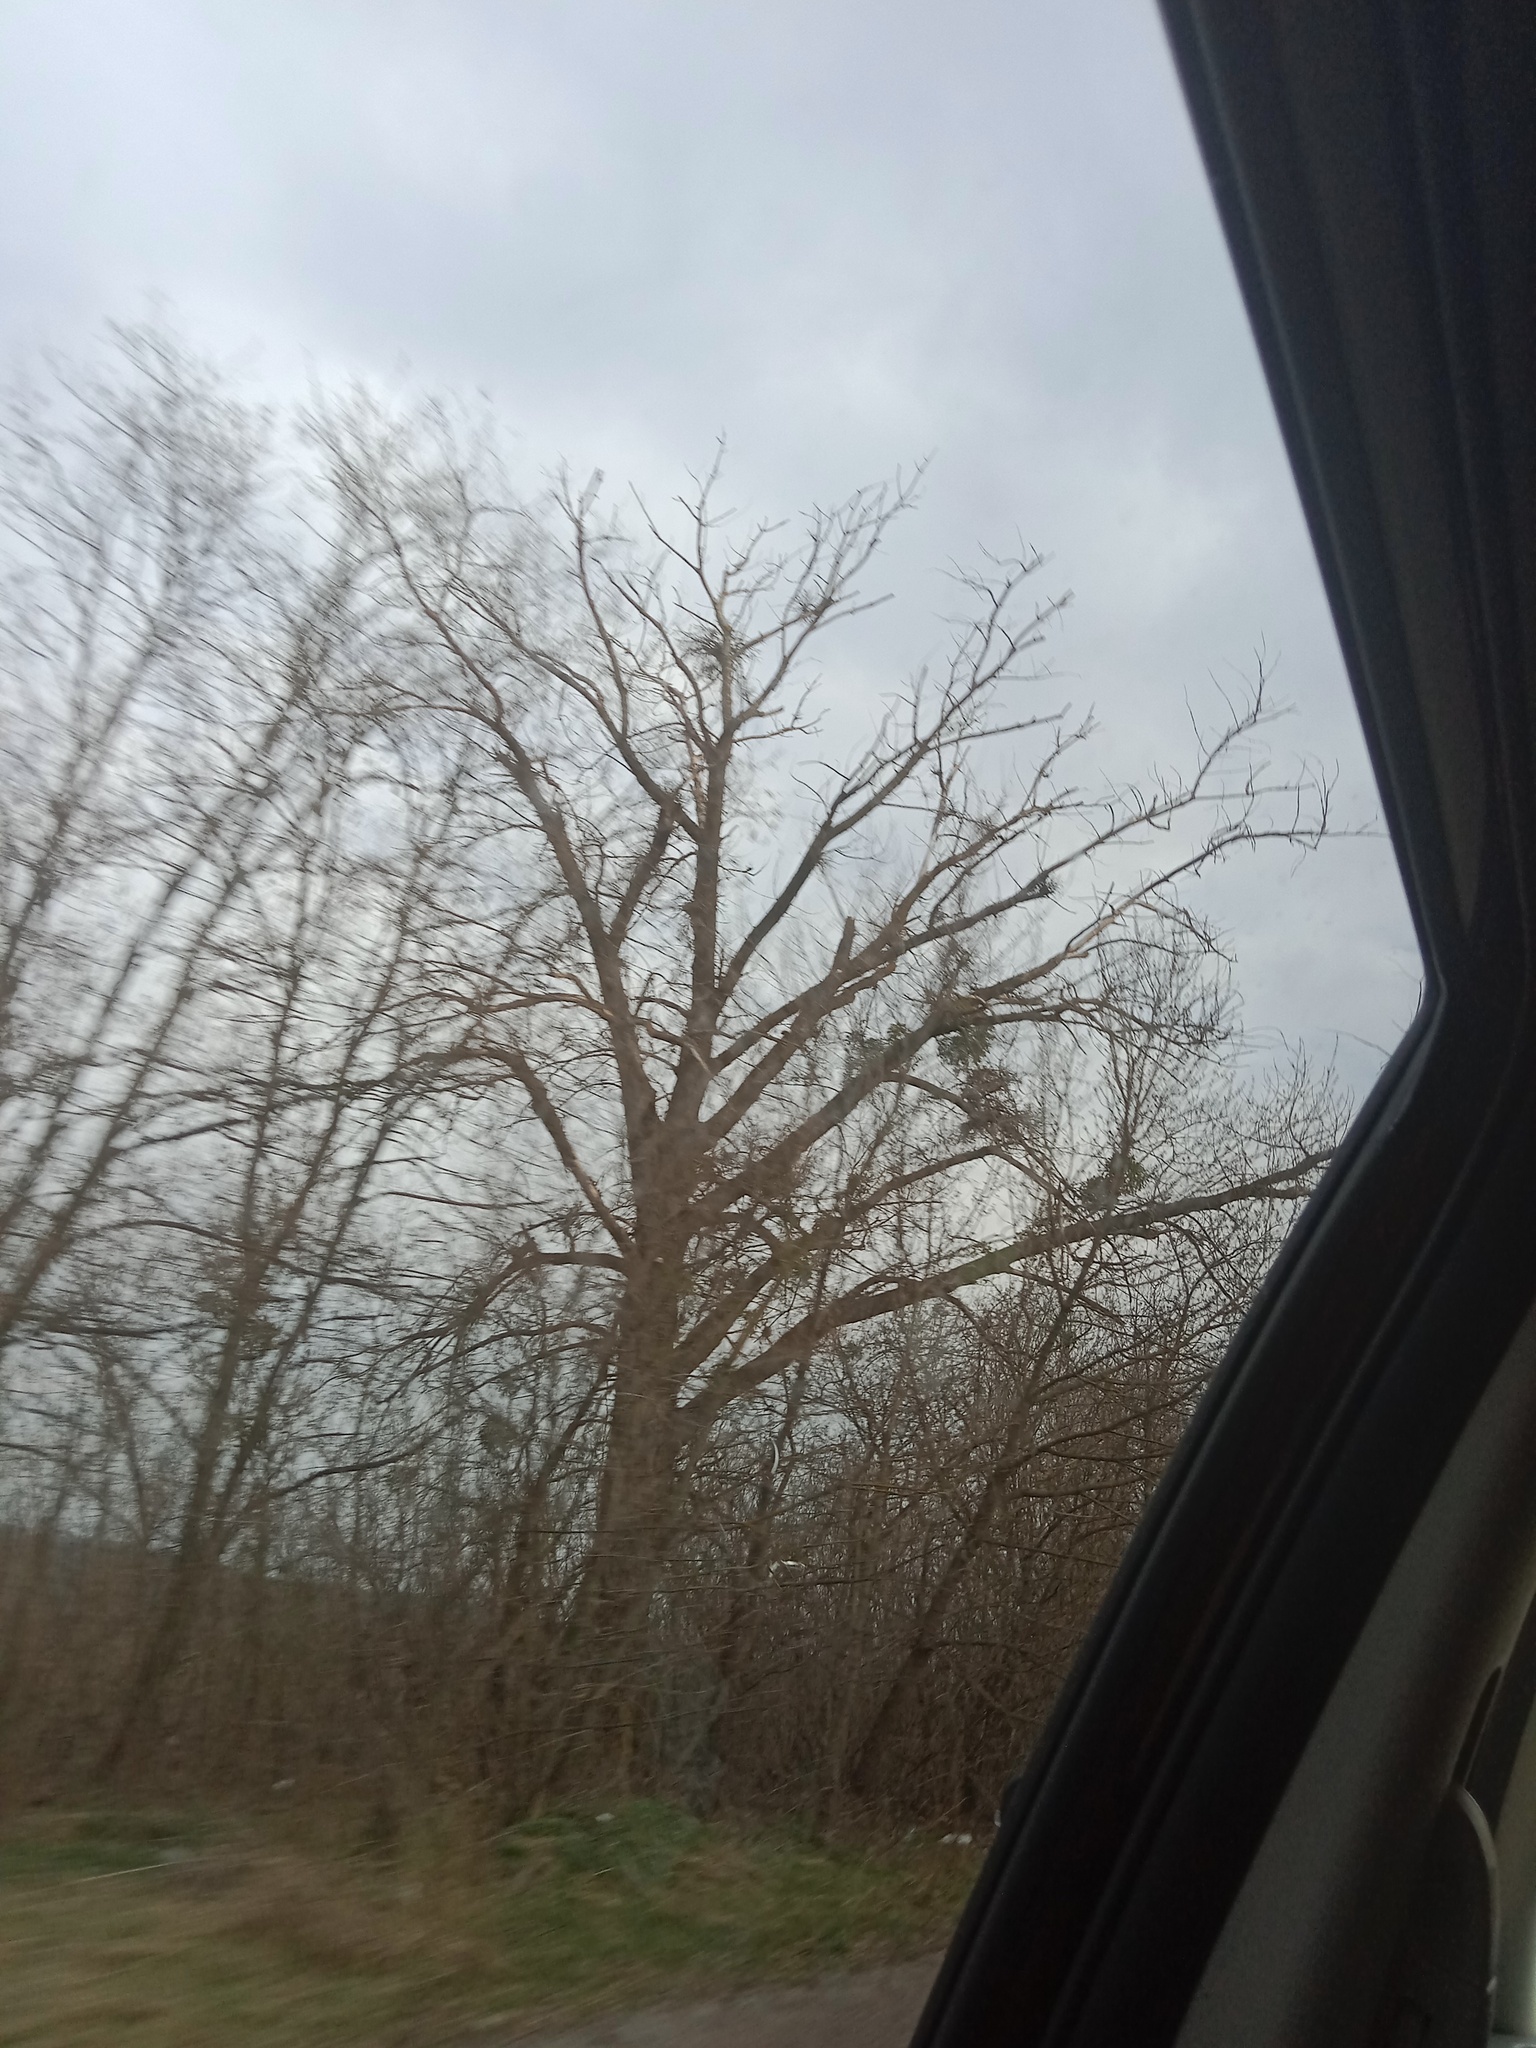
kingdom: Plantae
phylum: Tracheophyta
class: Magnoliopsida
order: Santalales
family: Viscaceae
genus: Viscum
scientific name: Viscum album
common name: Mistletoe
